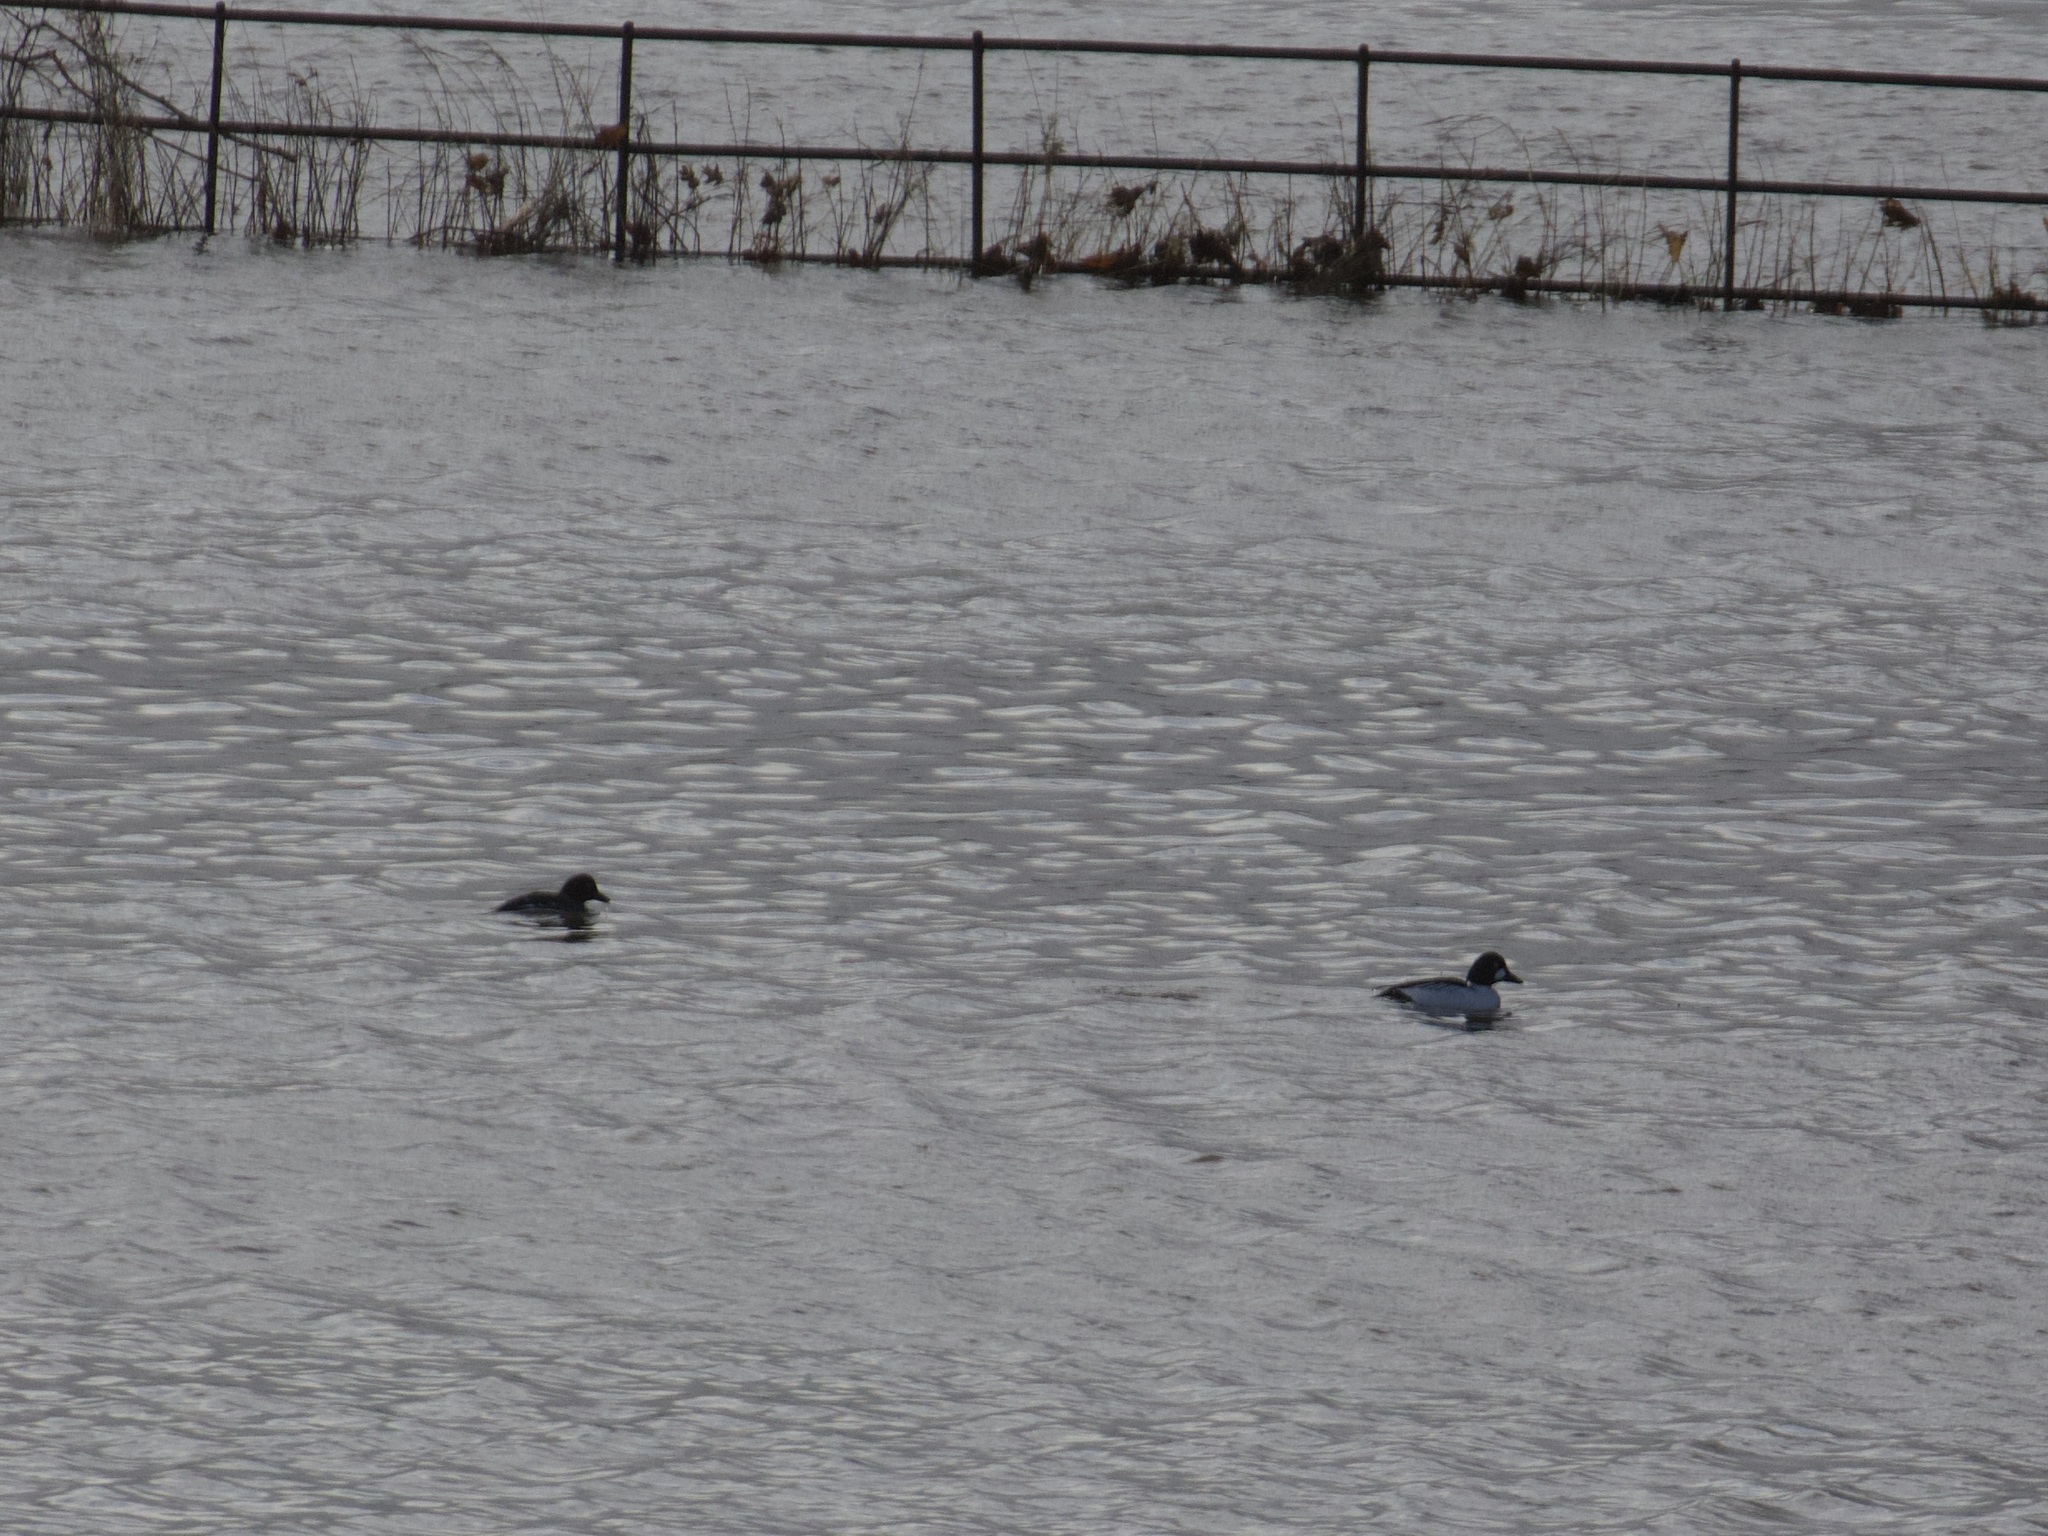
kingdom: Animalia
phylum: Chordata
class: Aves
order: Anseriformes
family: Anatidae
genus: Bucephala
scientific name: Bucephala clangula
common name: Common goldeneye
